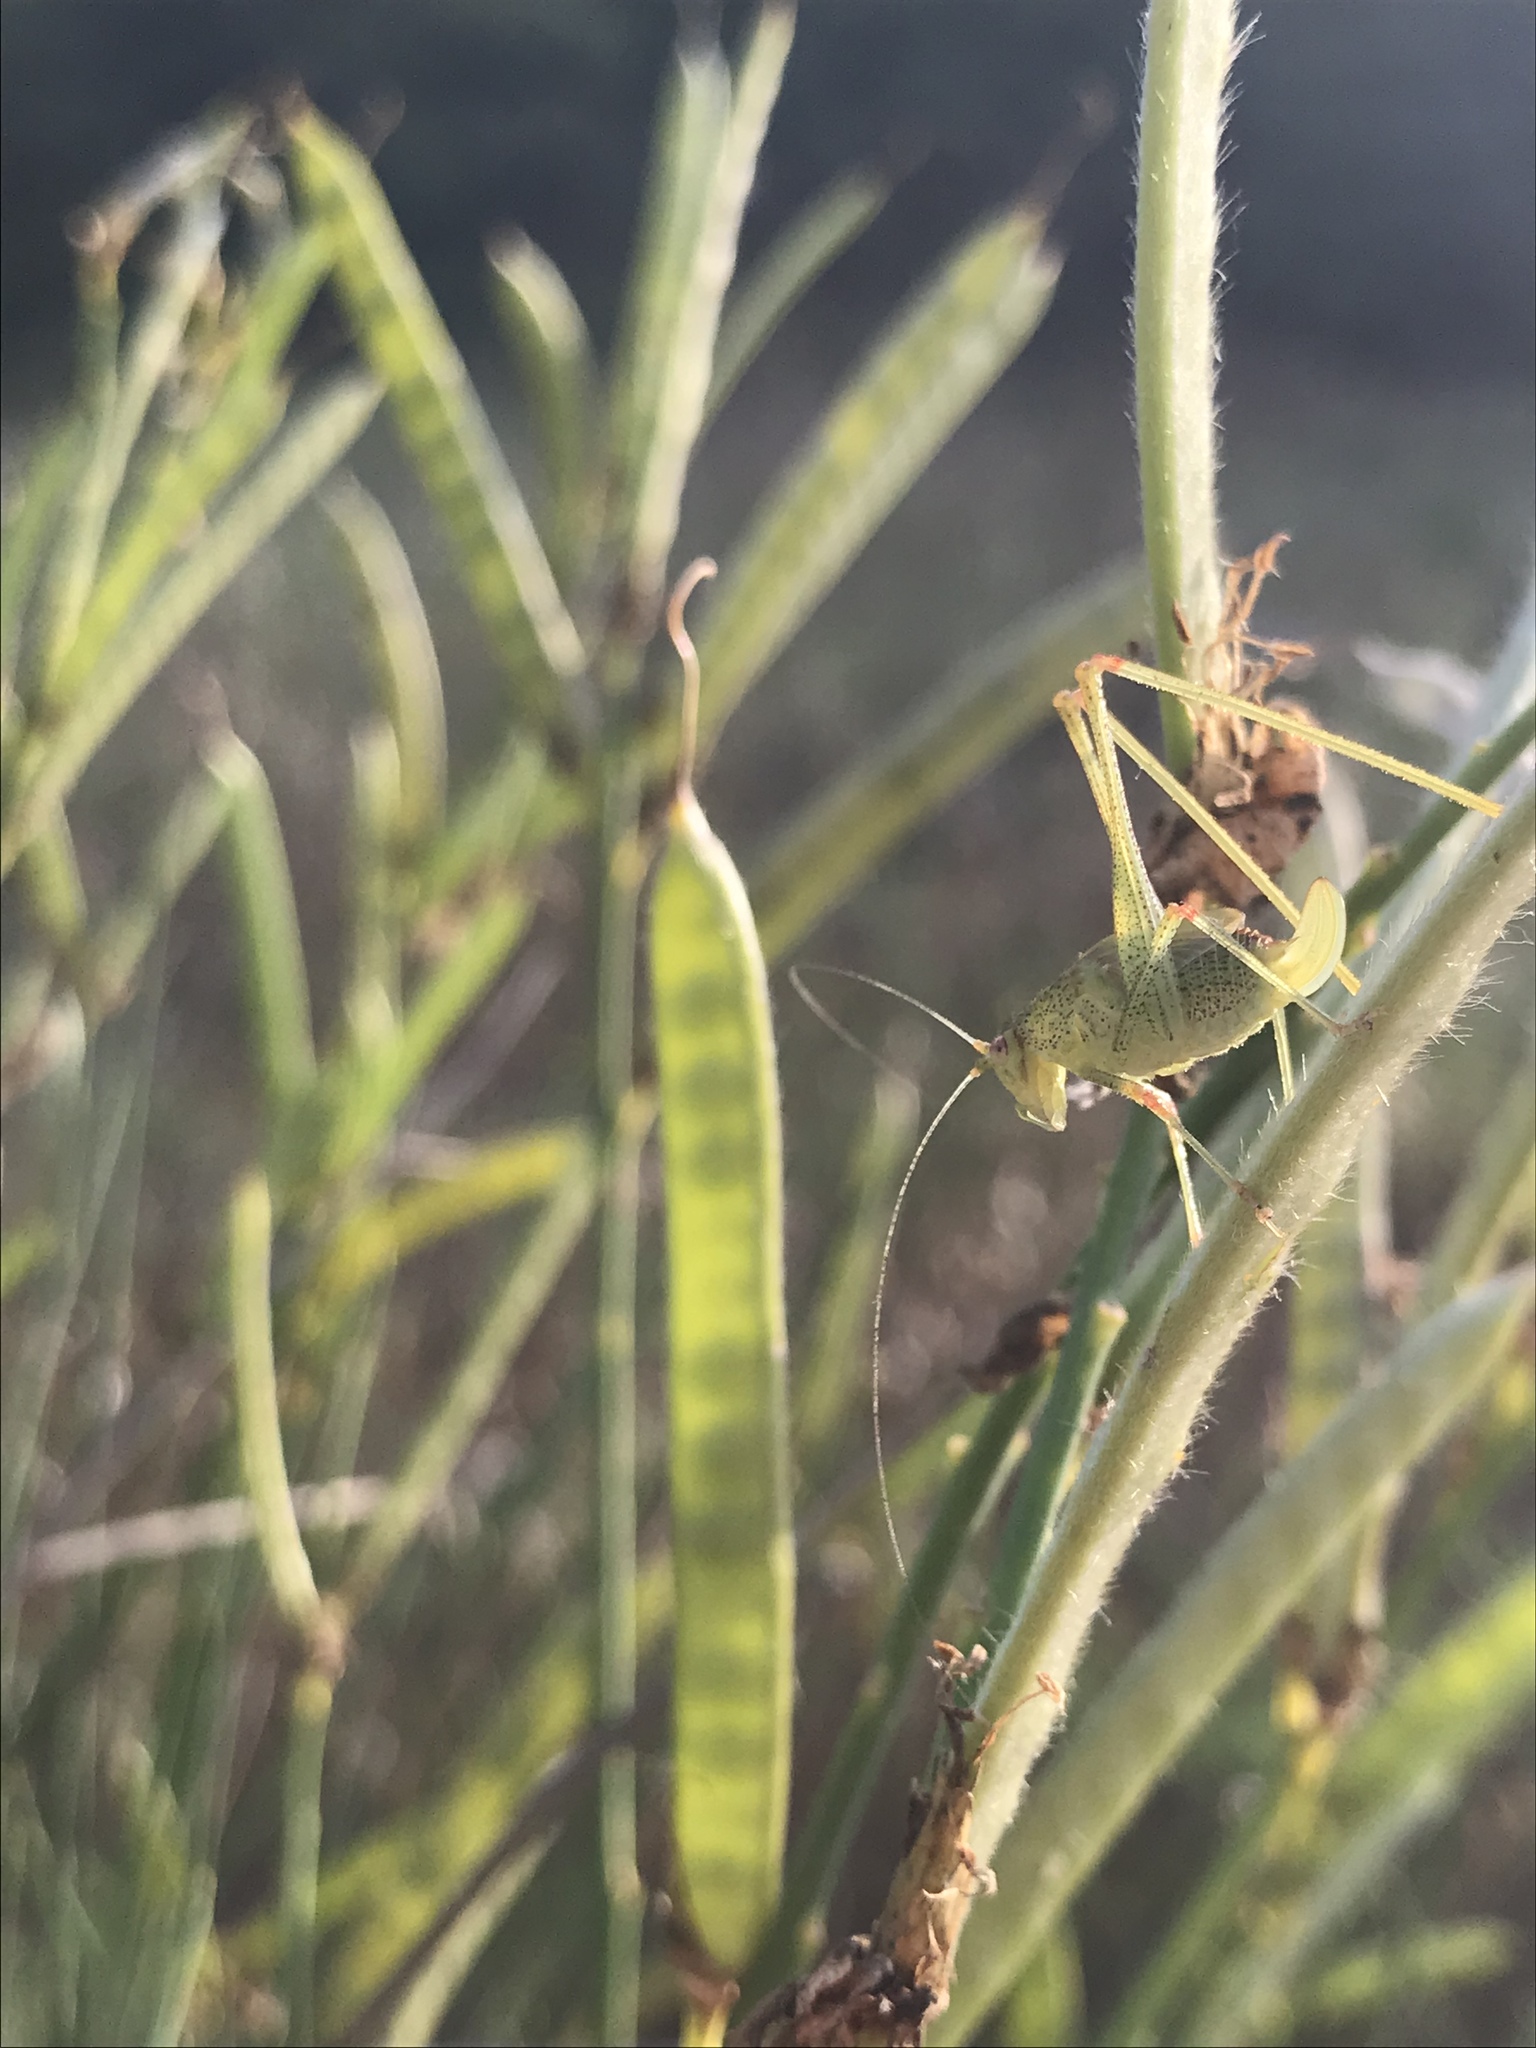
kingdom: Animalia
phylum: Arthropoda
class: Insecta
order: Orthoptera
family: Tettigoniidae
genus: Phaneroptera
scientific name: Phaneroptera nana
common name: Southern sickle bush-cricket
